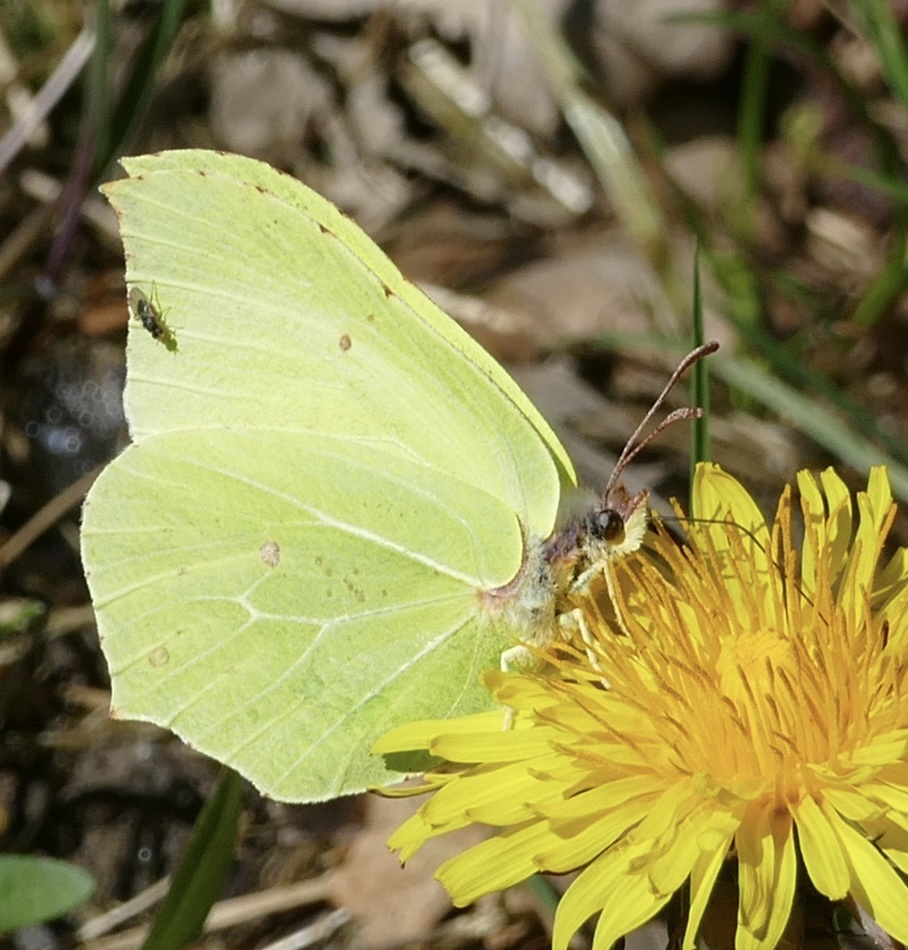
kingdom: Animalia
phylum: Arthropoda
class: Insecta
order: Lepidoptera
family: Pieridae
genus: Gonepteryx
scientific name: Gonepteryx rhamni
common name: Brimstone
